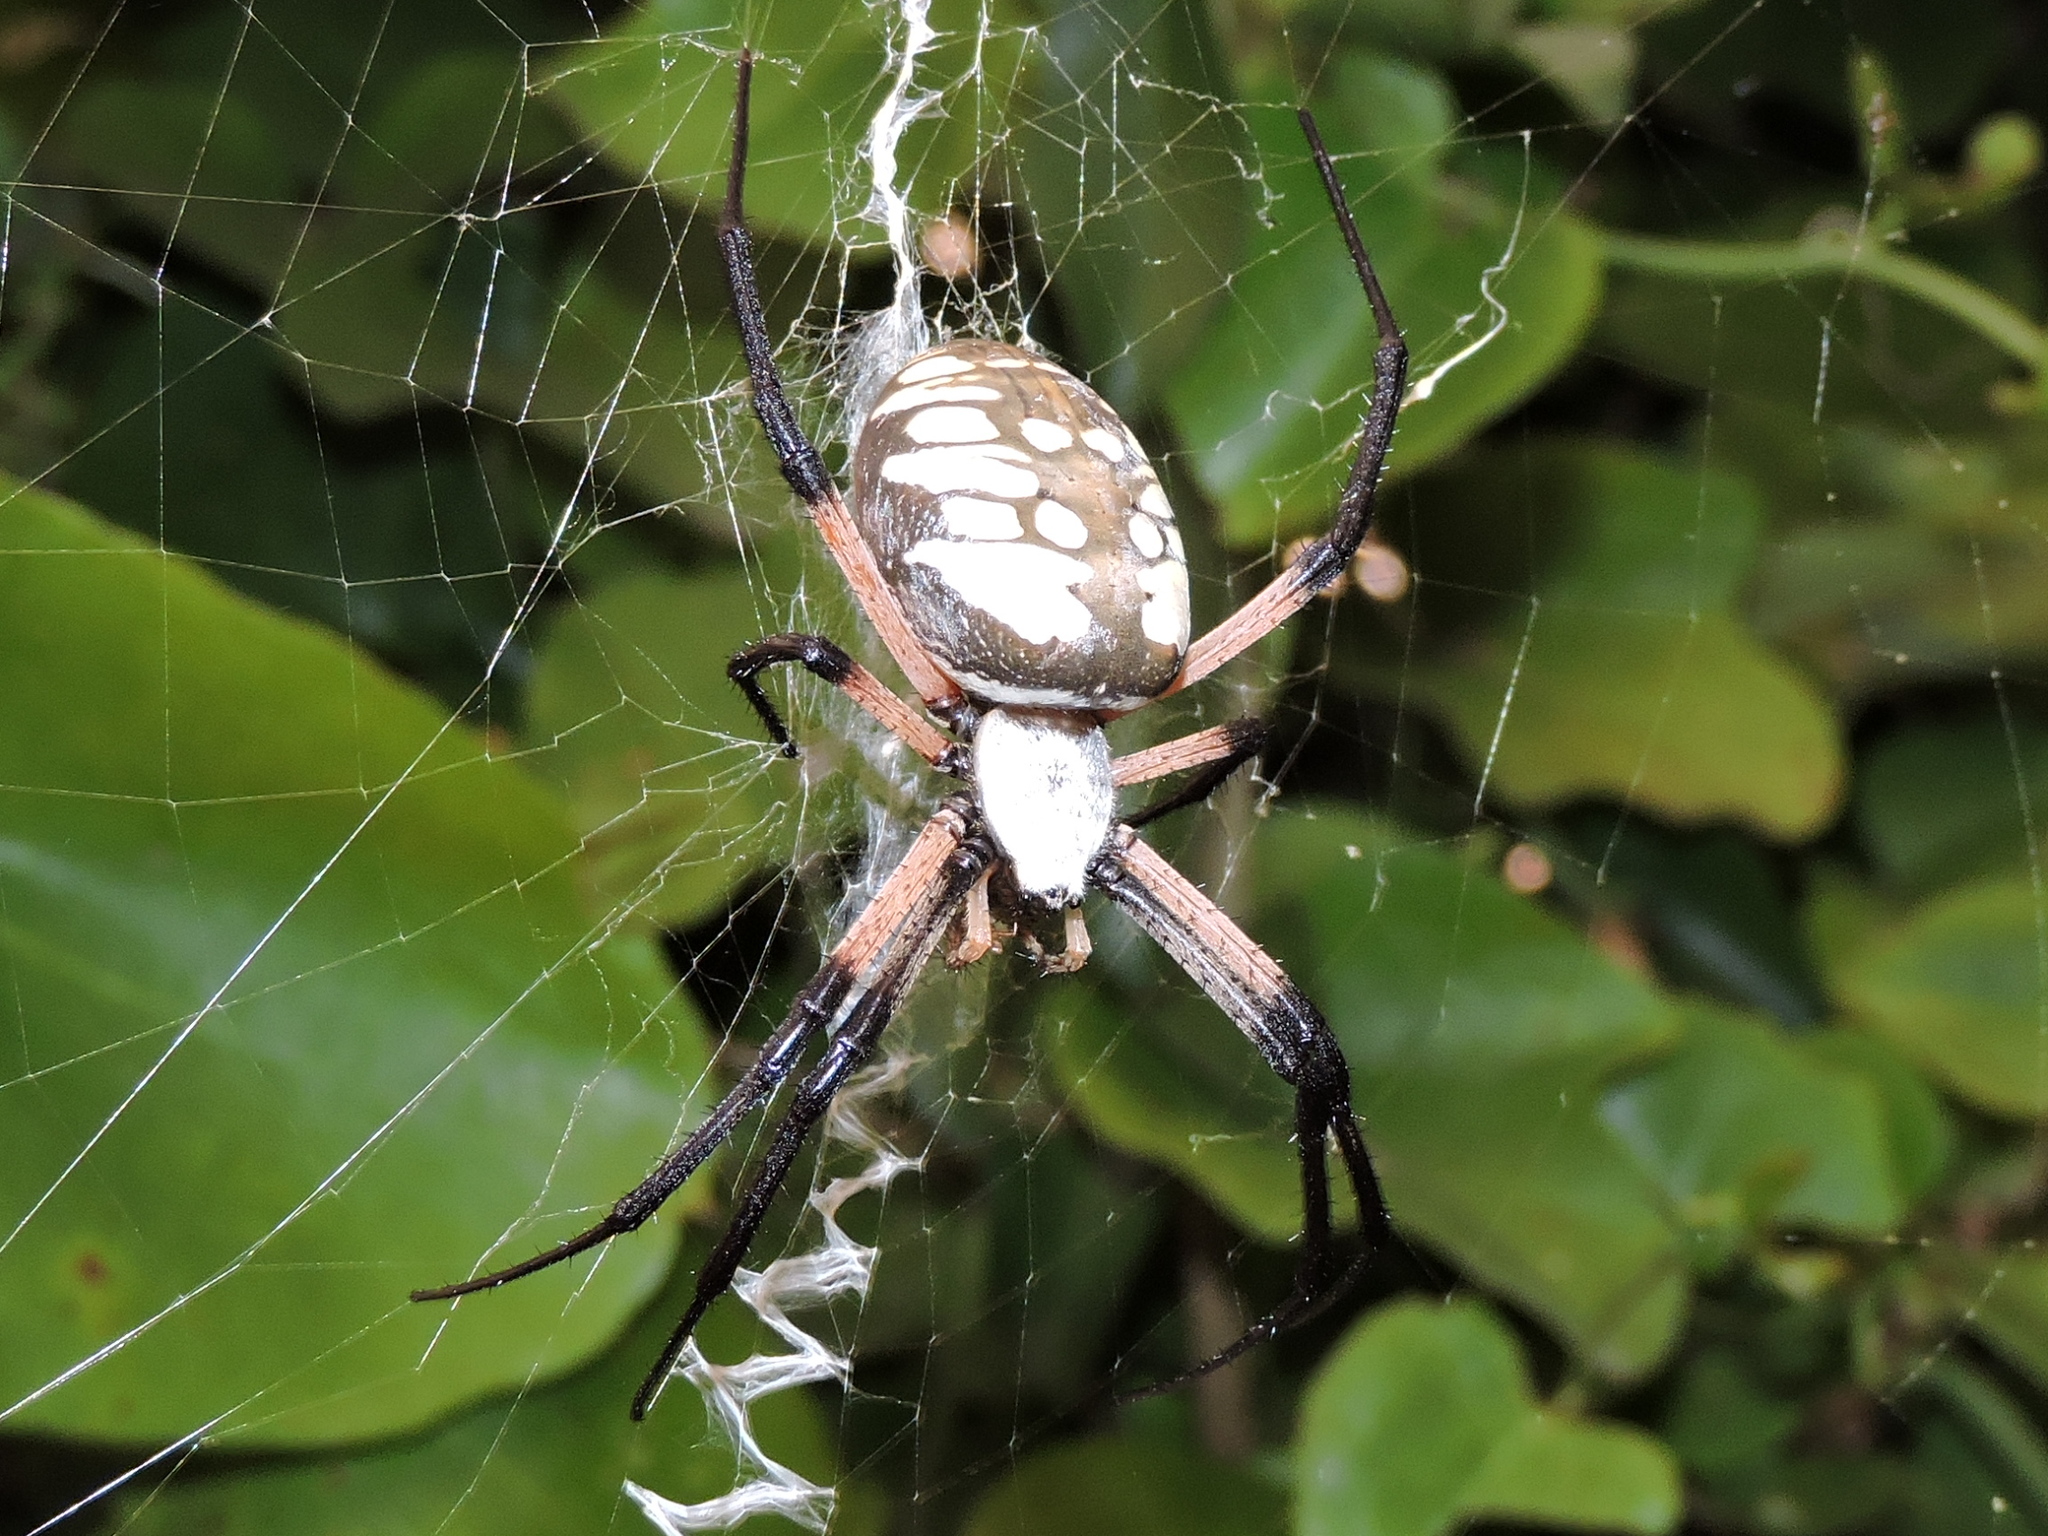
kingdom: Animalia
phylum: Arthropoda
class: Arachnida
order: Araneae
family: Araneidae
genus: Argiope
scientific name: Argiope aurantia
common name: Orb weavers
